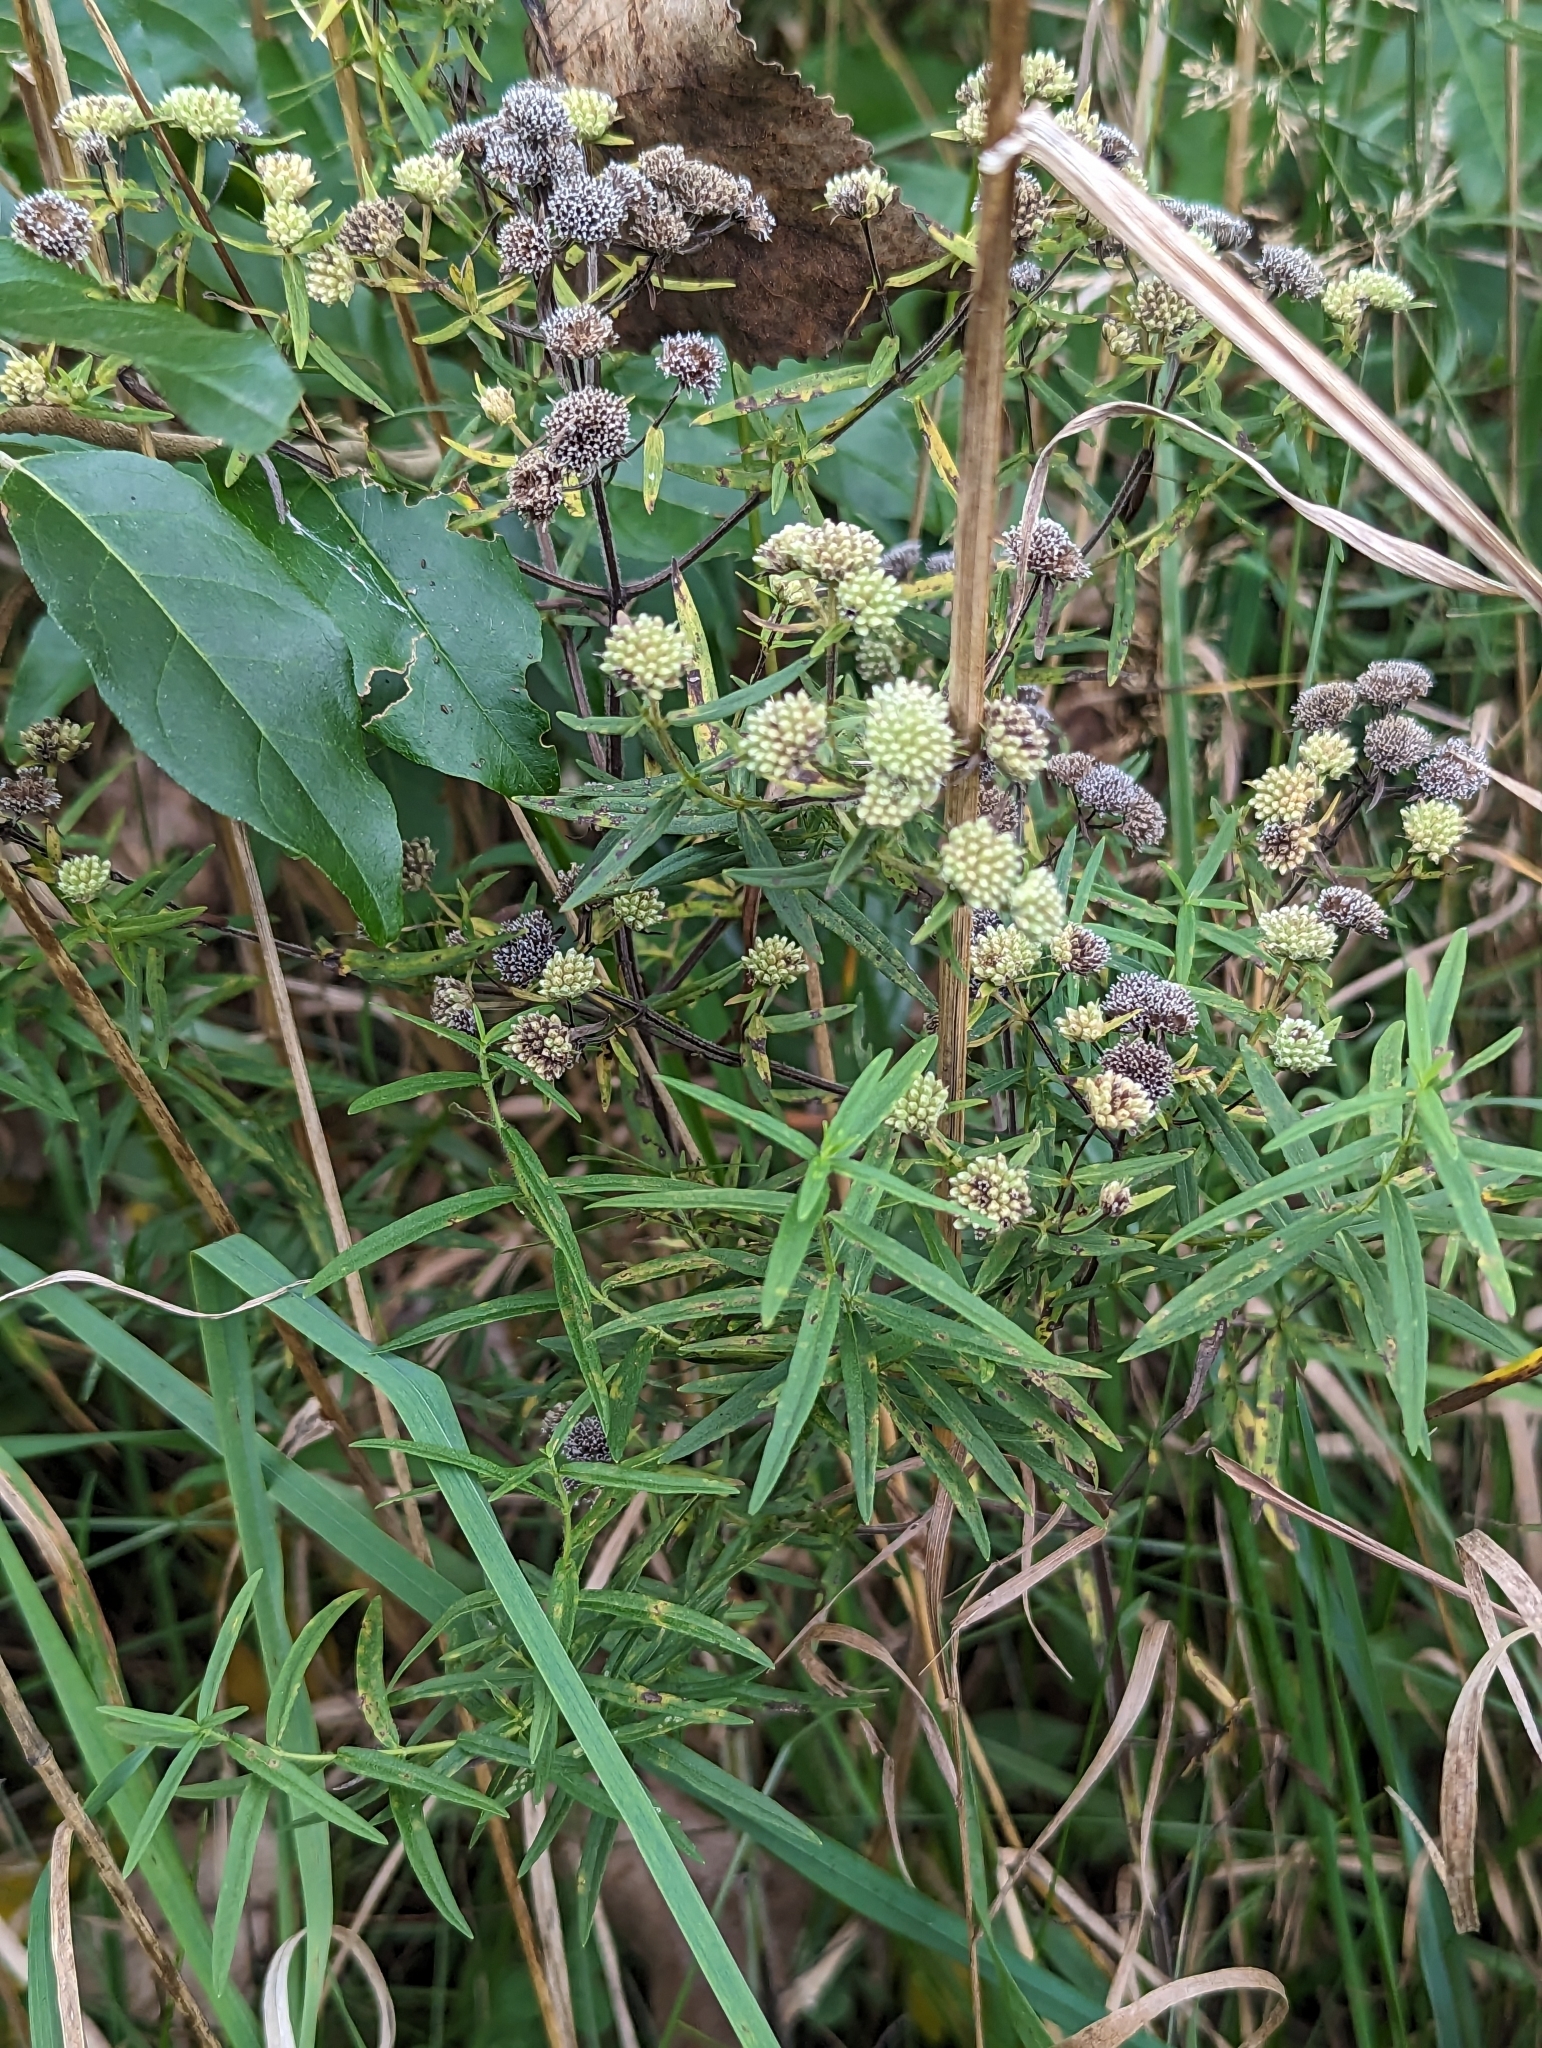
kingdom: Plantae
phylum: Tracheophyta
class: Magnoliopsida
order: Lamiales
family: Lamiaceae
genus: Pycnanthemum
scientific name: Pycnanthemum virginianum
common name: Virginia mountain-mint
